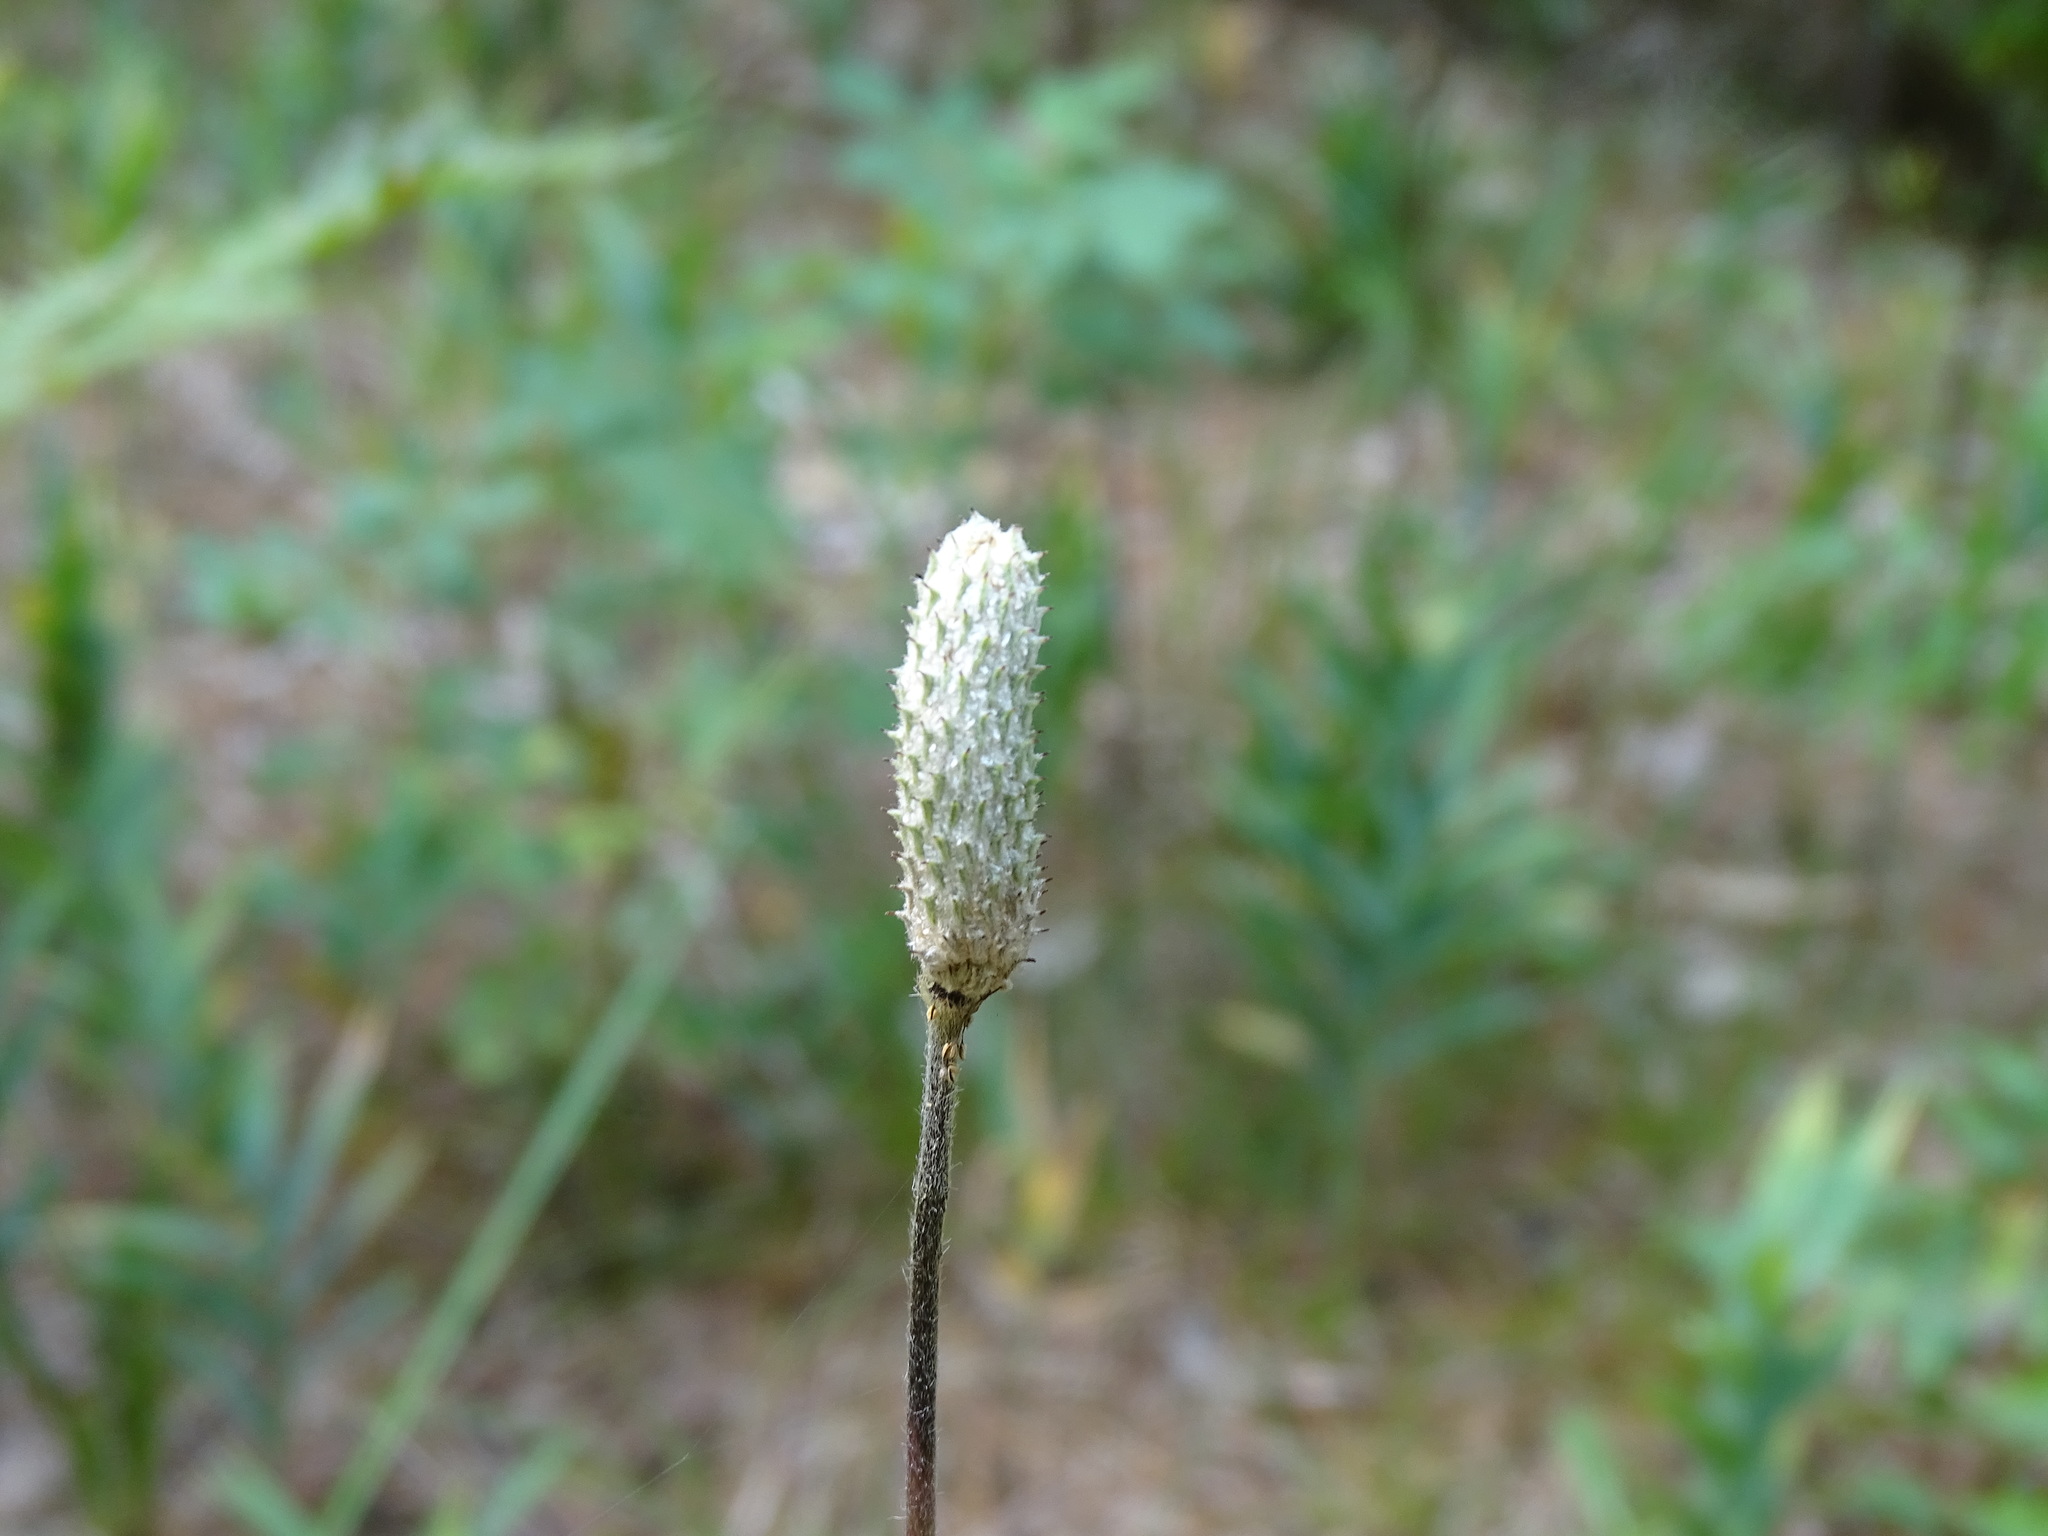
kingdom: Plantae
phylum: Tracheophyta
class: Magnoliopsida
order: Ranunculales
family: Ranunculaceae
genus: Anemone
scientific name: Anemone cylindrica
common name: Candle anemone
